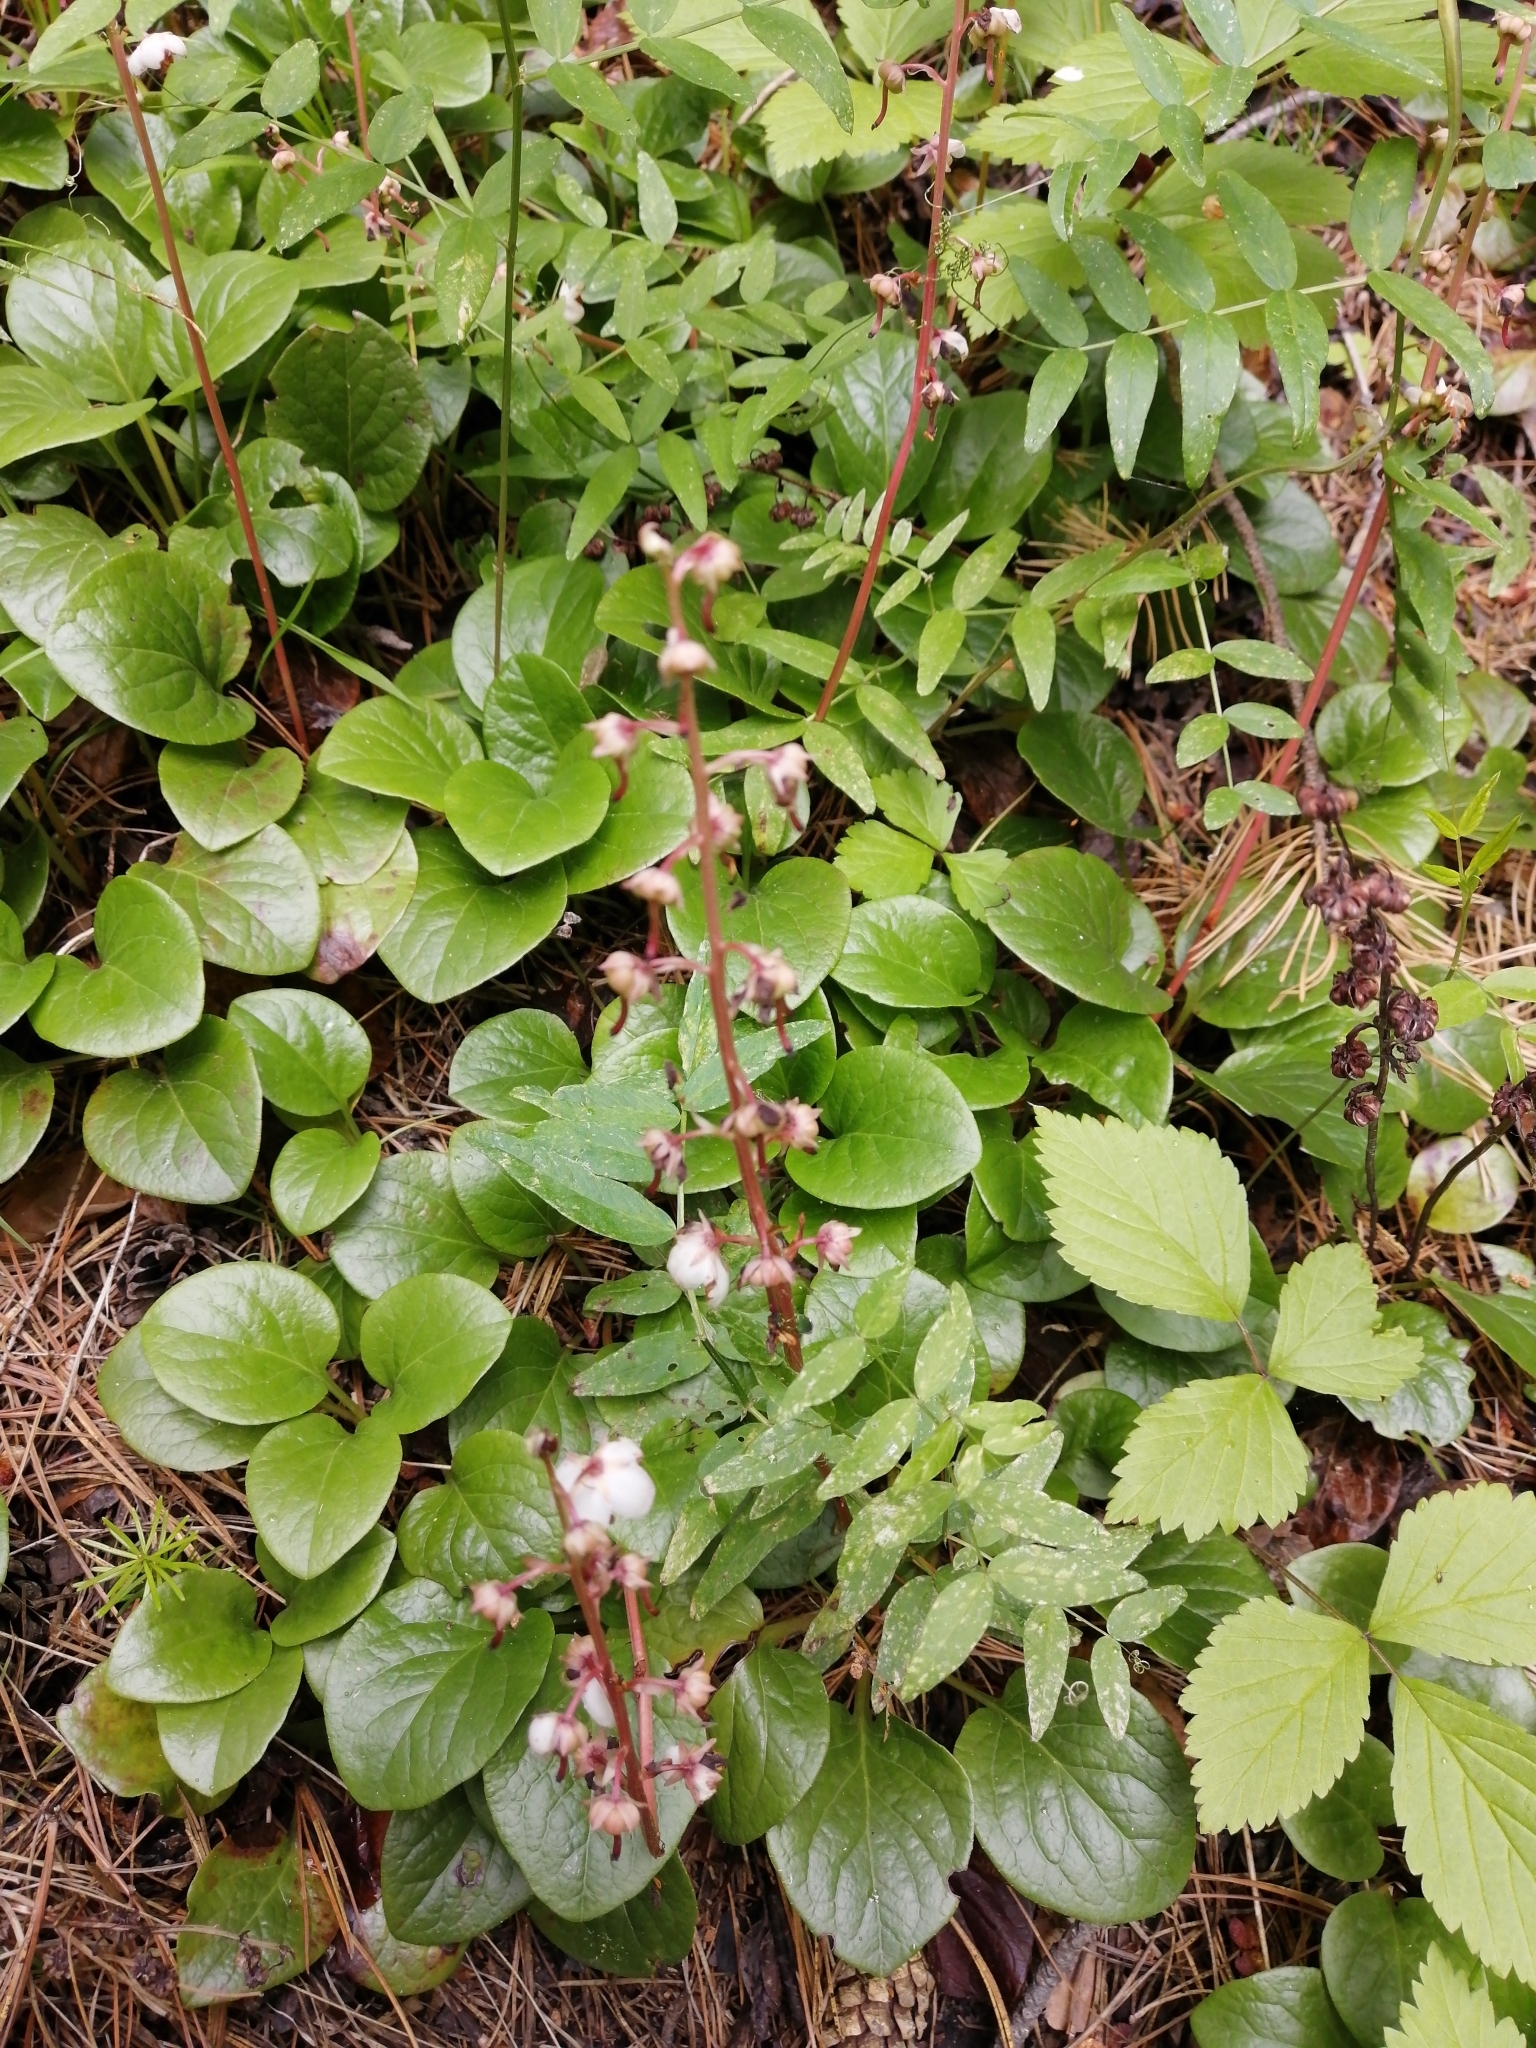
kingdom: Plantae
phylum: Tracheophyta
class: Magnoliopsida
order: Ericales
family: Ericaceae
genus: Pyrola
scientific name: Pyrola asarifolia
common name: Bog wintergreen
